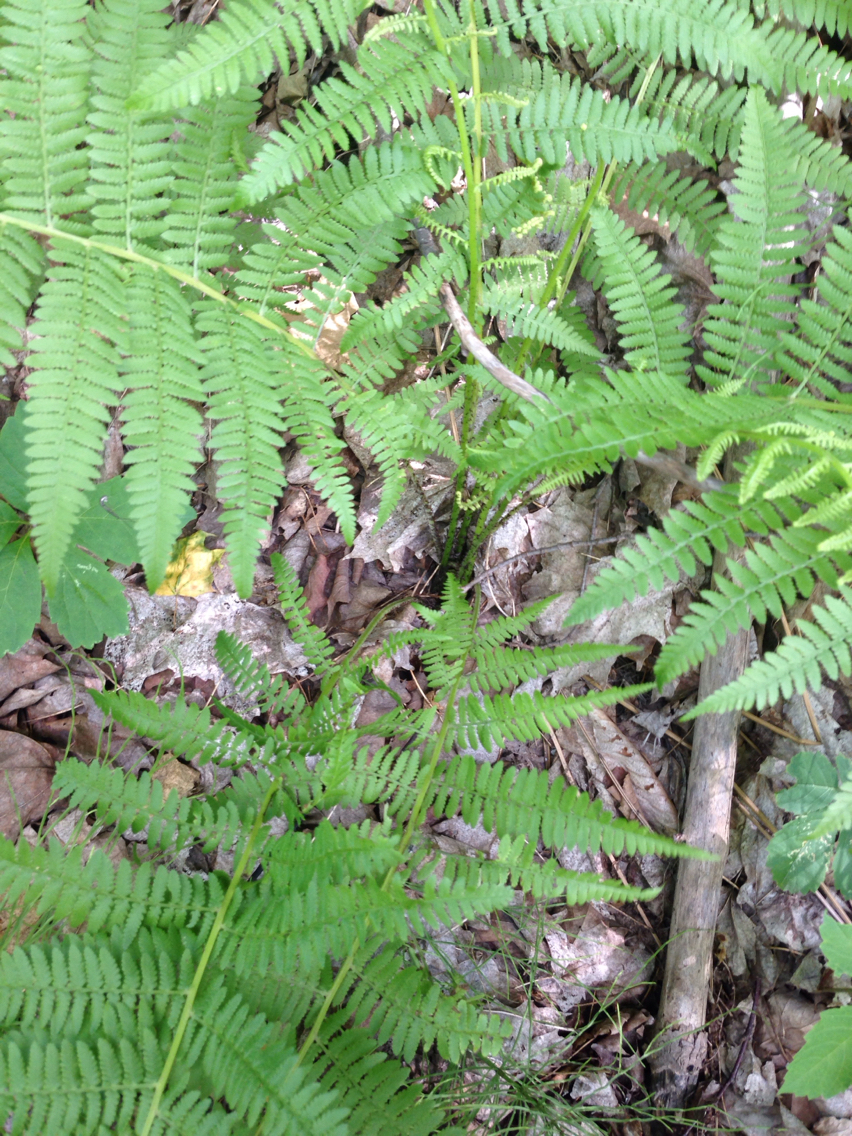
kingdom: Plantae
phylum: Tracheophyta
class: Polypodiopsida
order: Polypodiales
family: Athyriaceae
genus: Athyrium
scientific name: Athyrium angustum
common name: Northern lady fern
